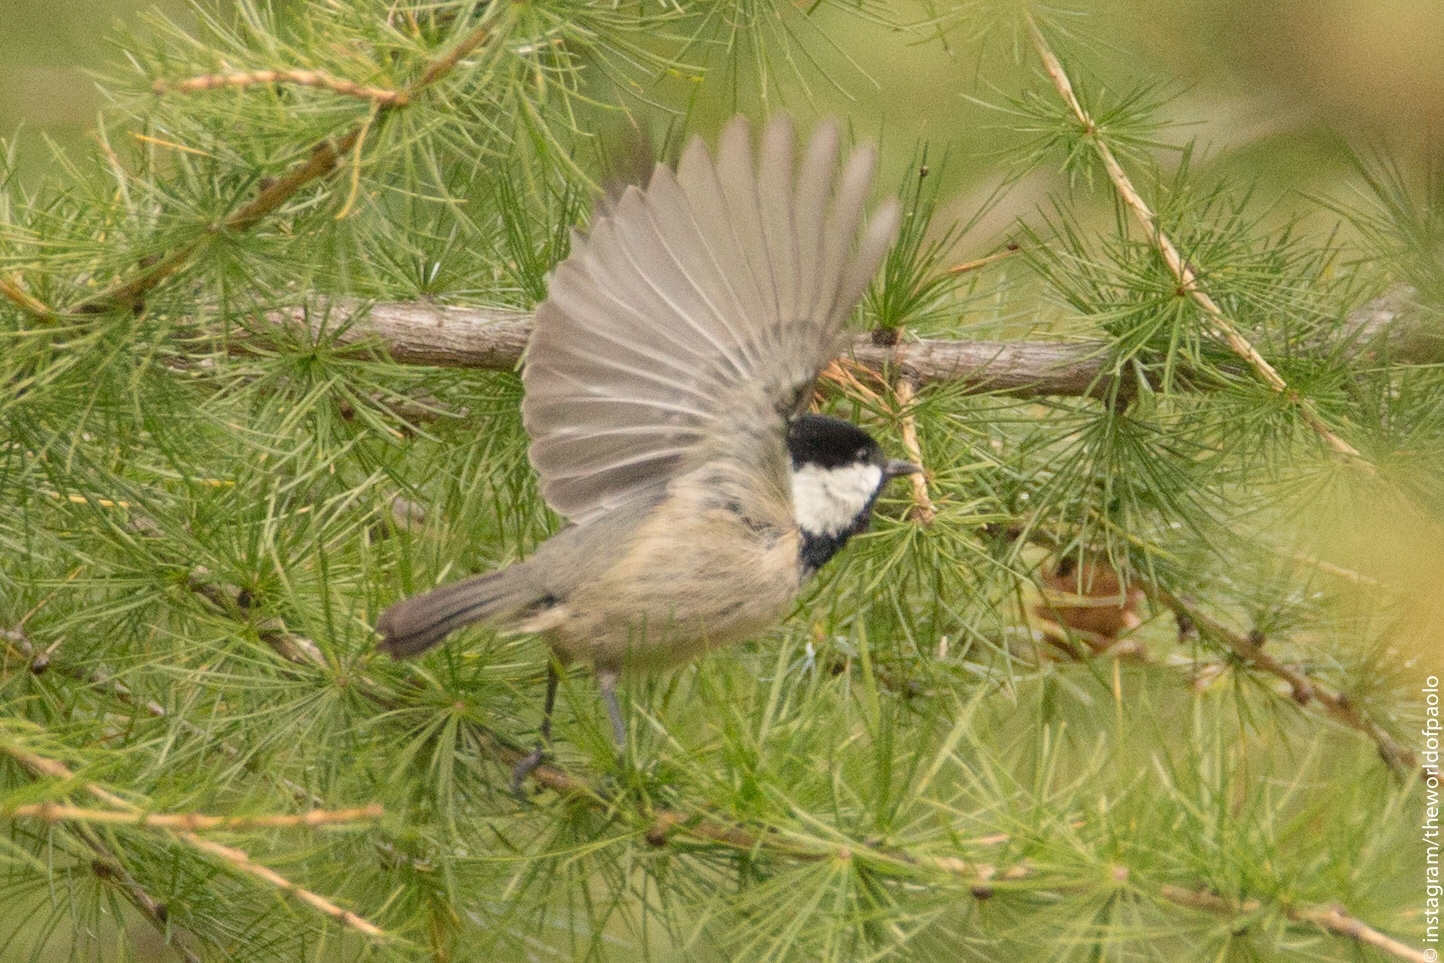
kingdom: Animalia
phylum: Chordata
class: Aves
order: Passeriformes
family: Paridae
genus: Periparus
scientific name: Periparus ater
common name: Coal tit
